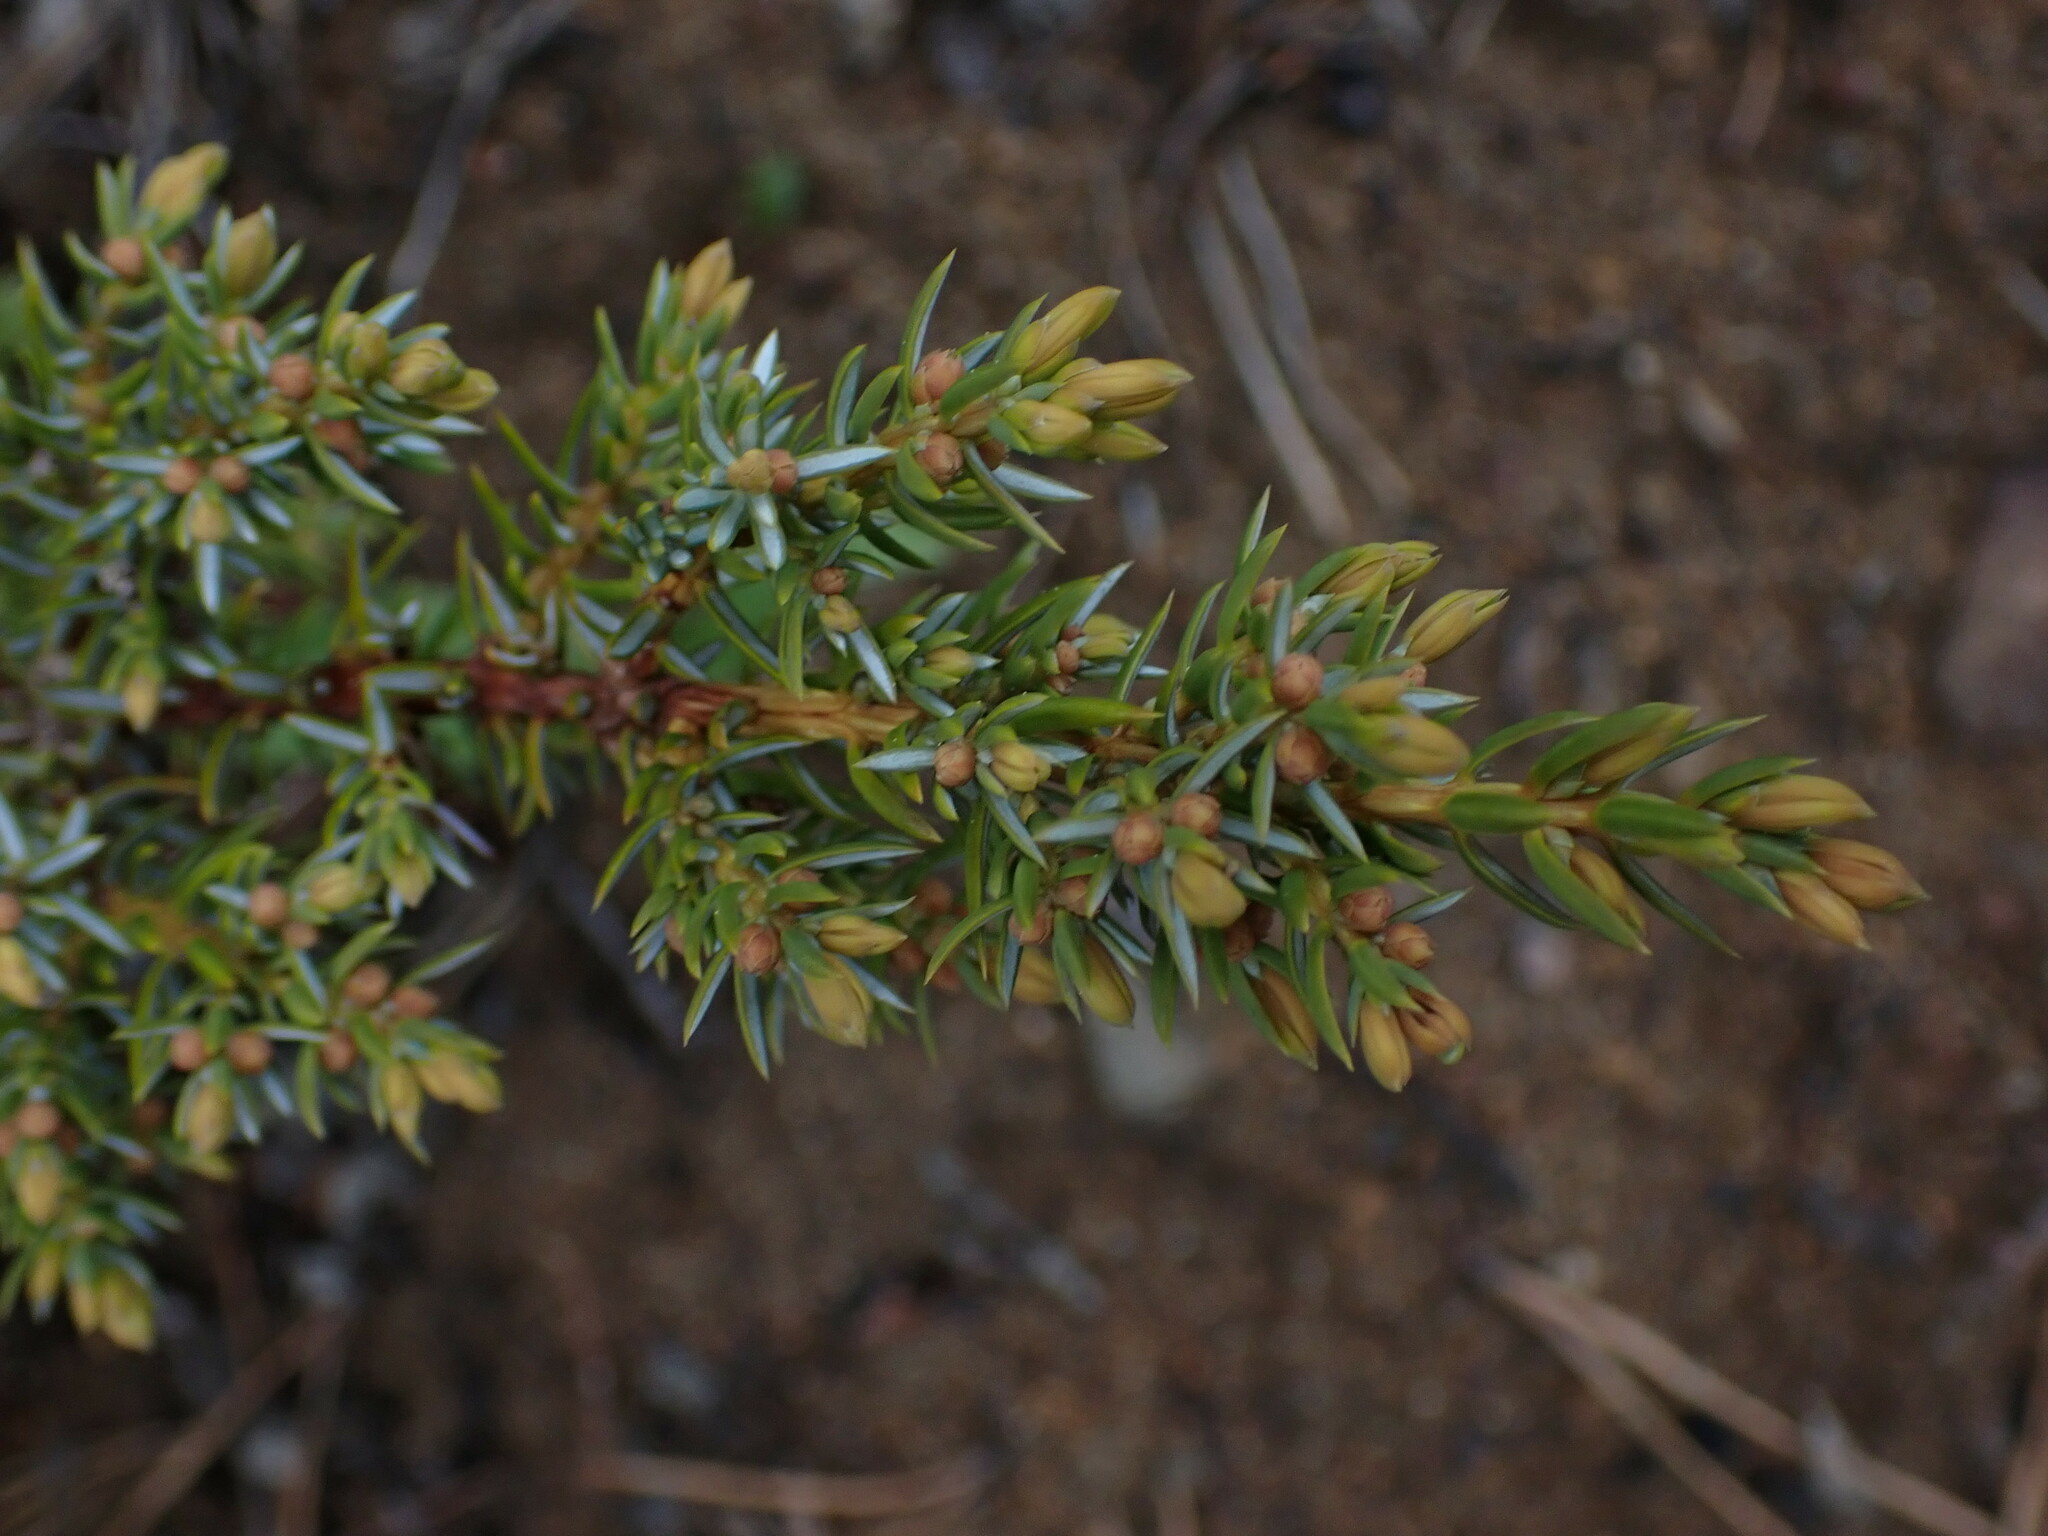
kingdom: Plantae
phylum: Tracheophyta
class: Pinopsida
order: Pinales
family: Cupressaceae
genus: Juniperus
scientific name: Juniperus communis
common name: Common juniper
